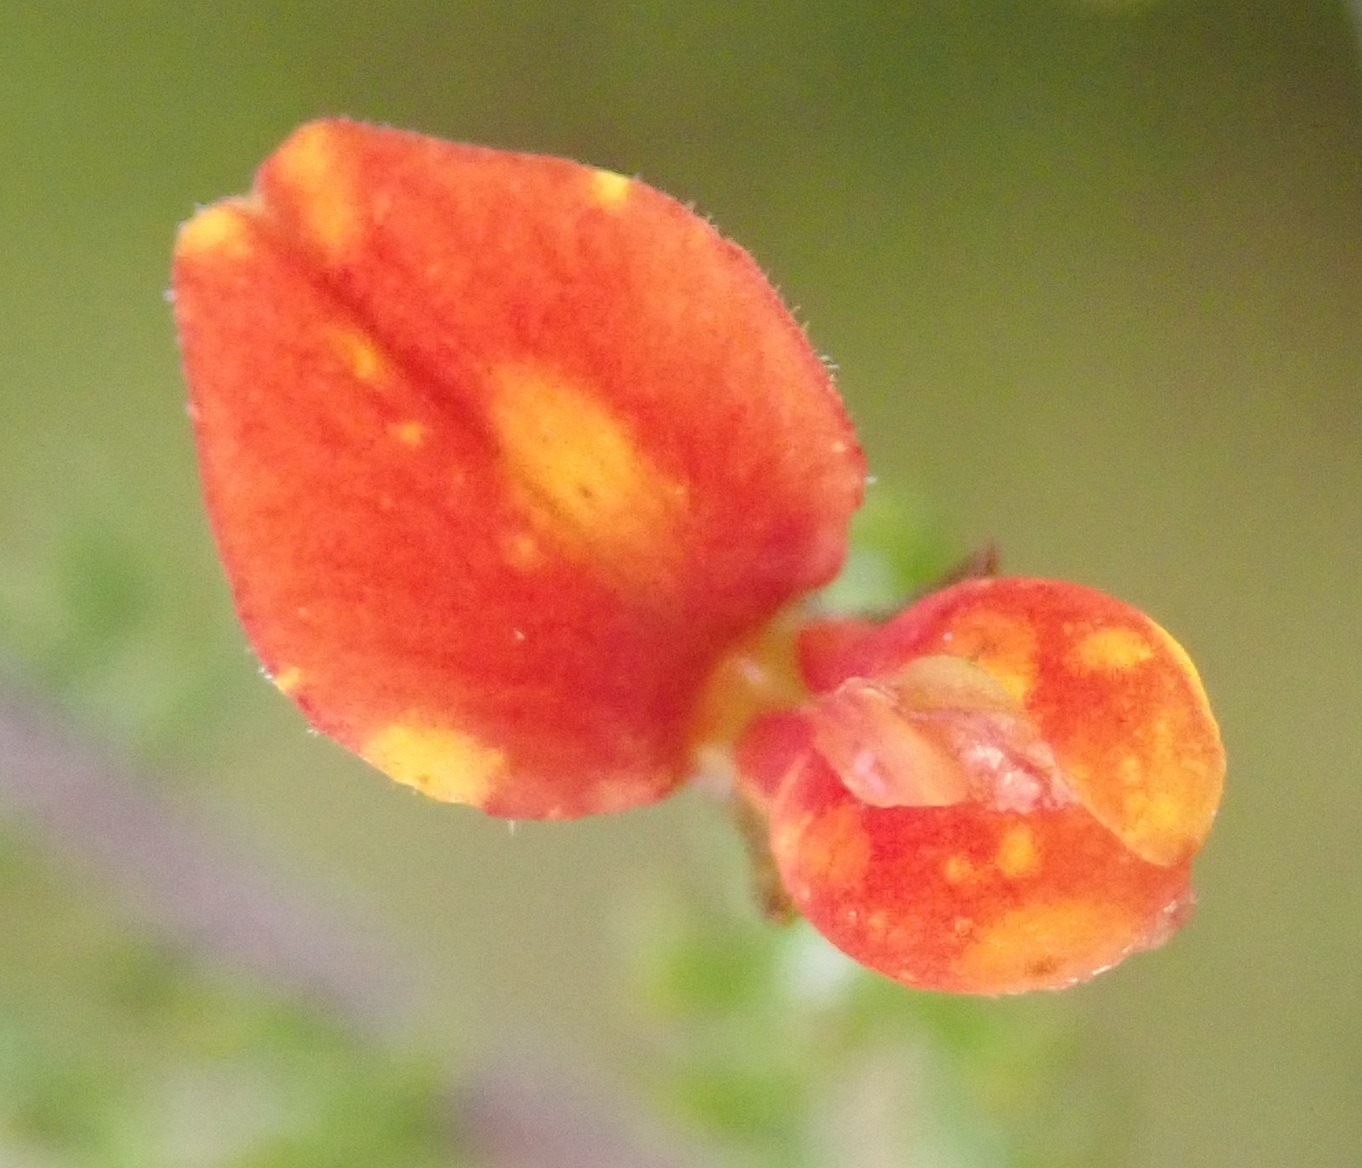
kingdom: Plantae
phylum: Tracheophyta
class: Magnoliopsida
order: Fabales
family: Fabaceae
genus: Aspalathus
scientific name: Aspalathus rubens
